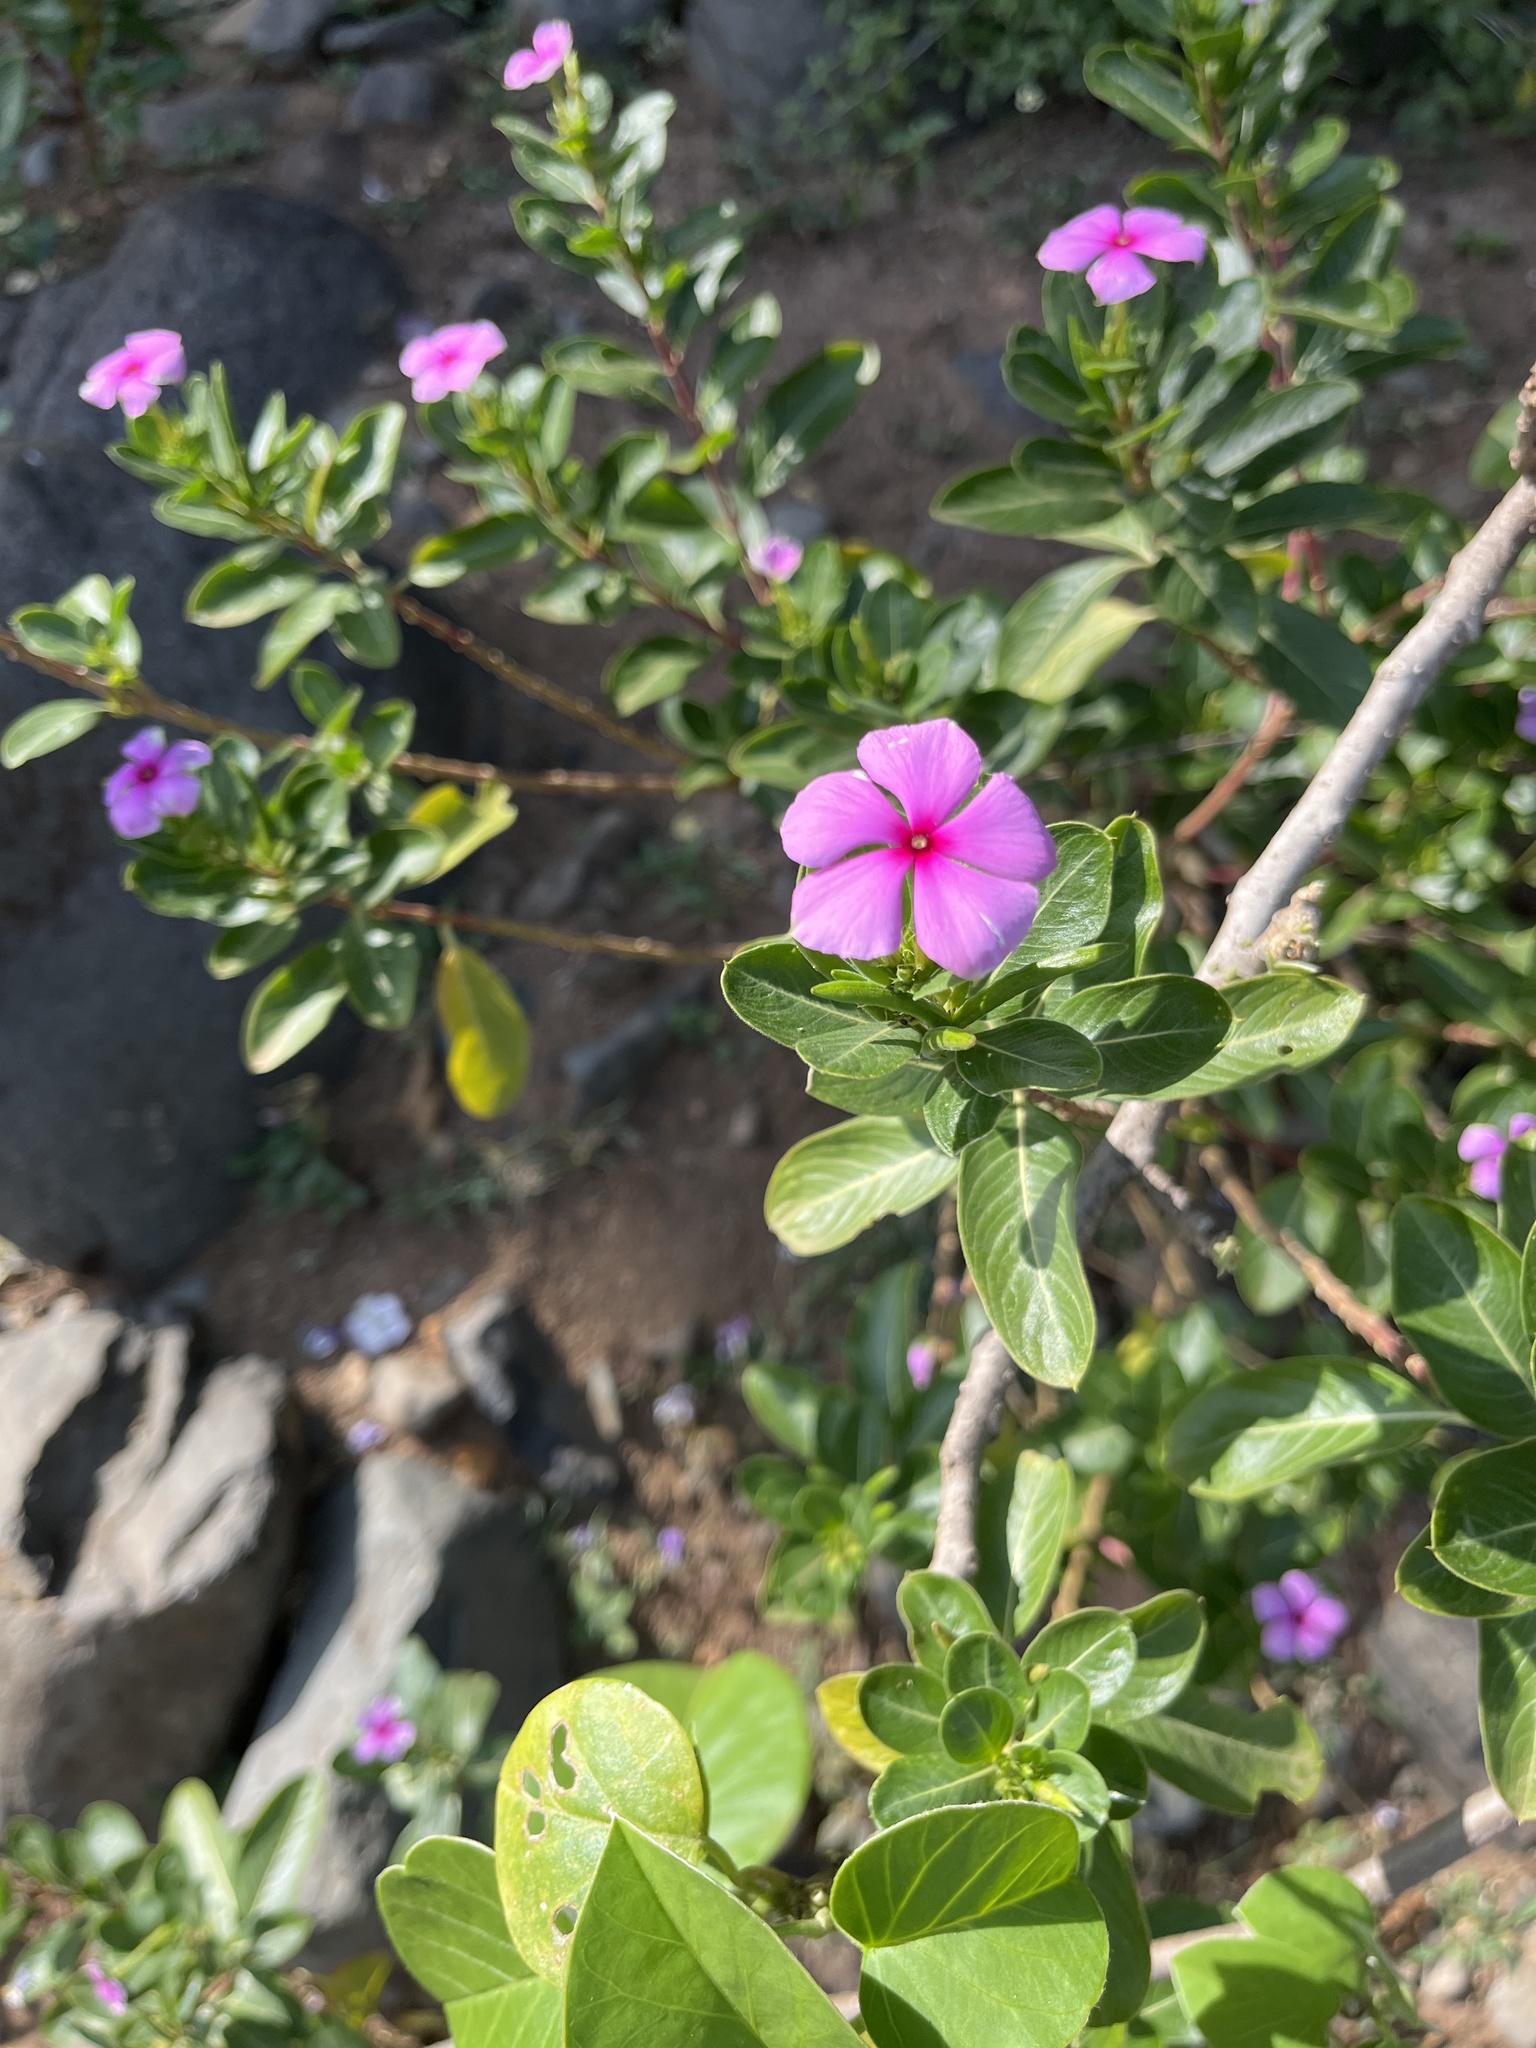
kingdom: Plantae
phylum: Tracheophyta
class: Magnoliopsida
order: Gentianales
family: Apocynaceae
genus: Catharanthus
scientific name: Catharanthus roseus
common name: Madagascar periwinkle
